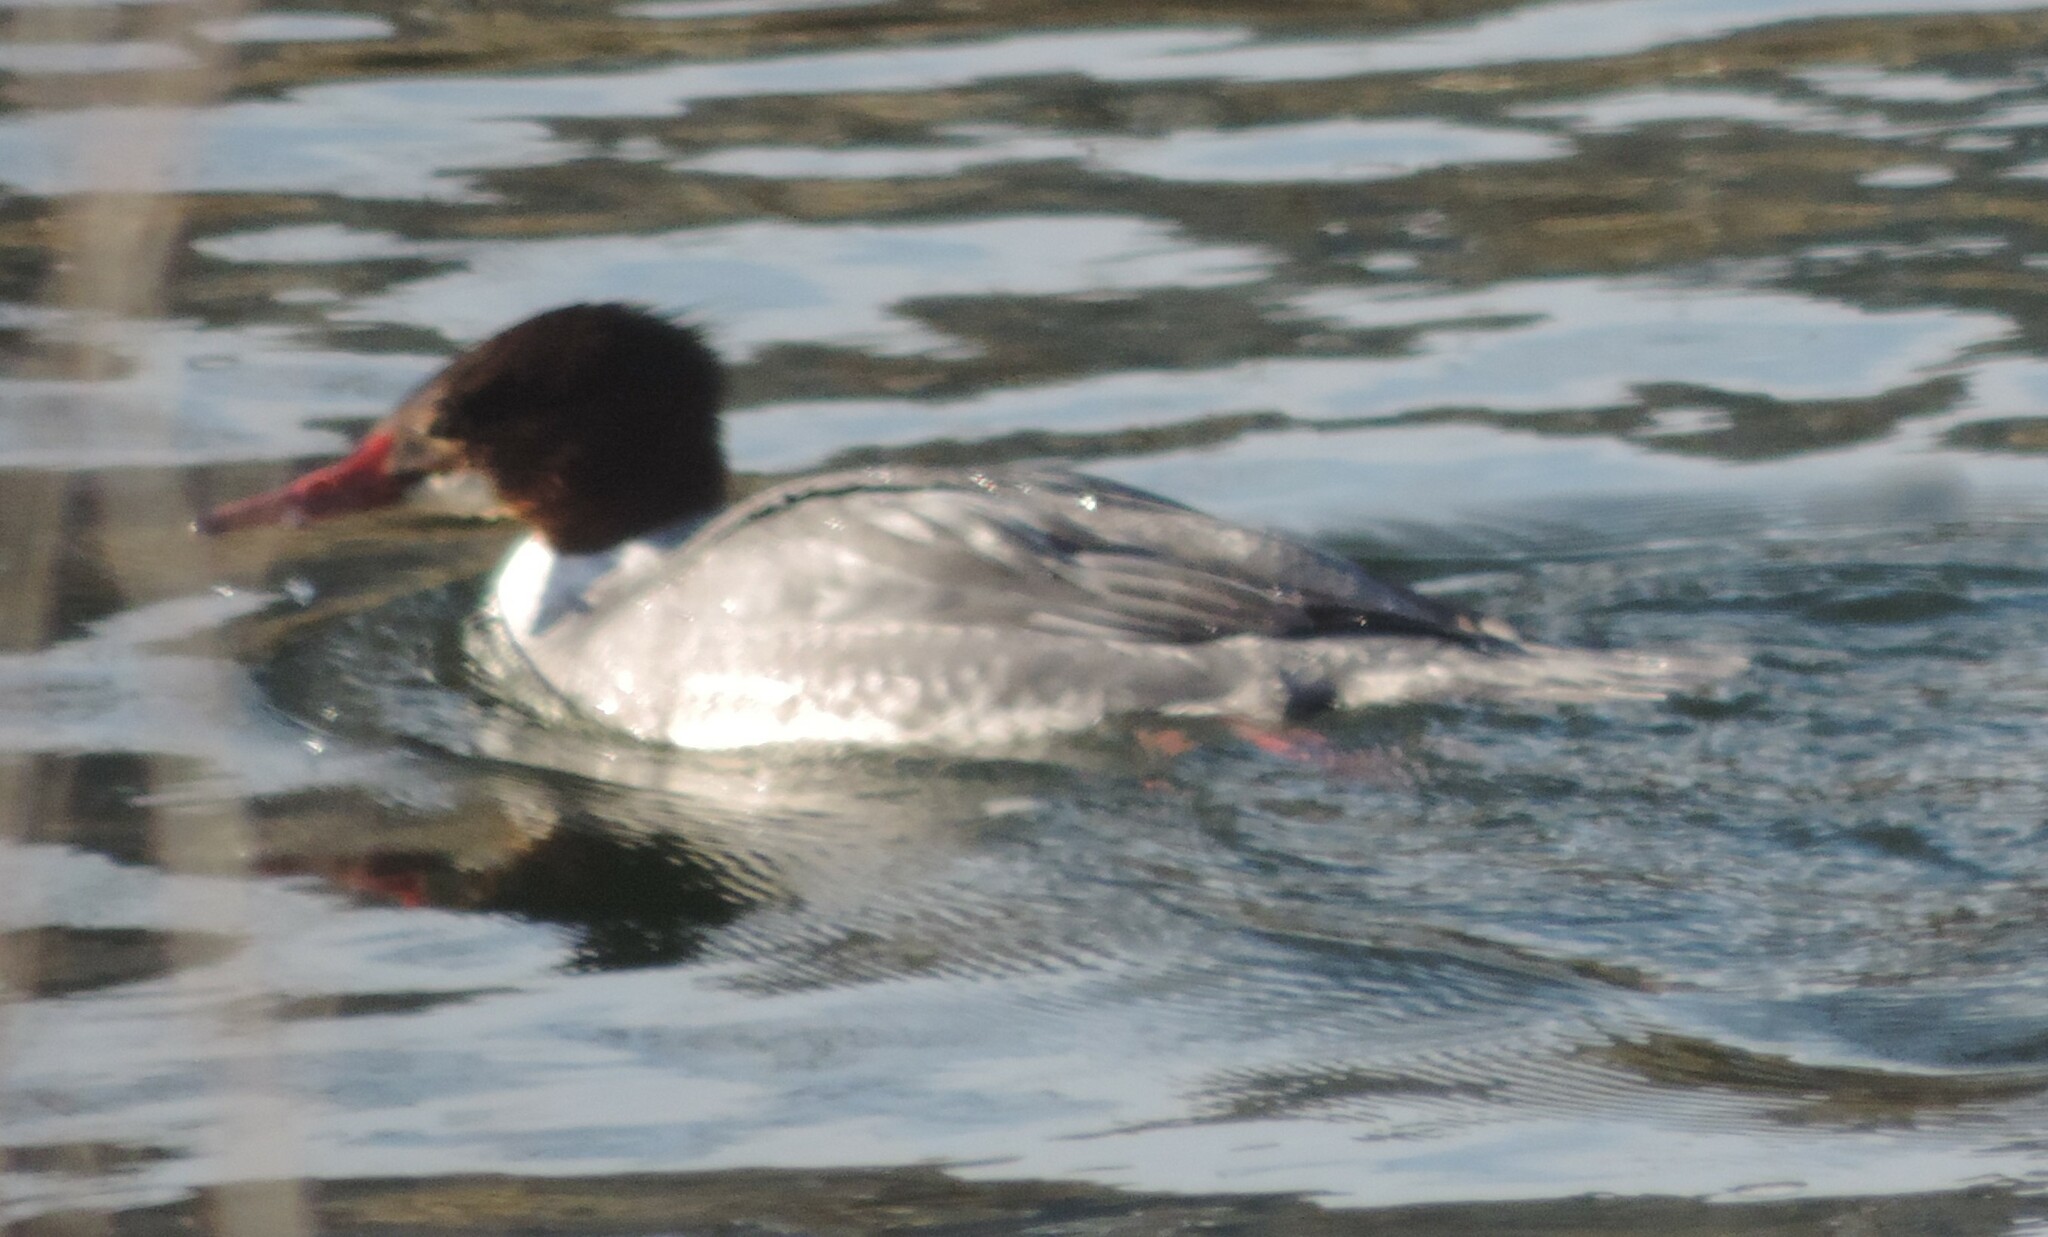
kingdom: Animalia
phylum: Chordata
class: Aves
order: Anseriformes
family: Anatidae
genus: Mergus
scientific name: Mergus merganser
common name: Common merganser
